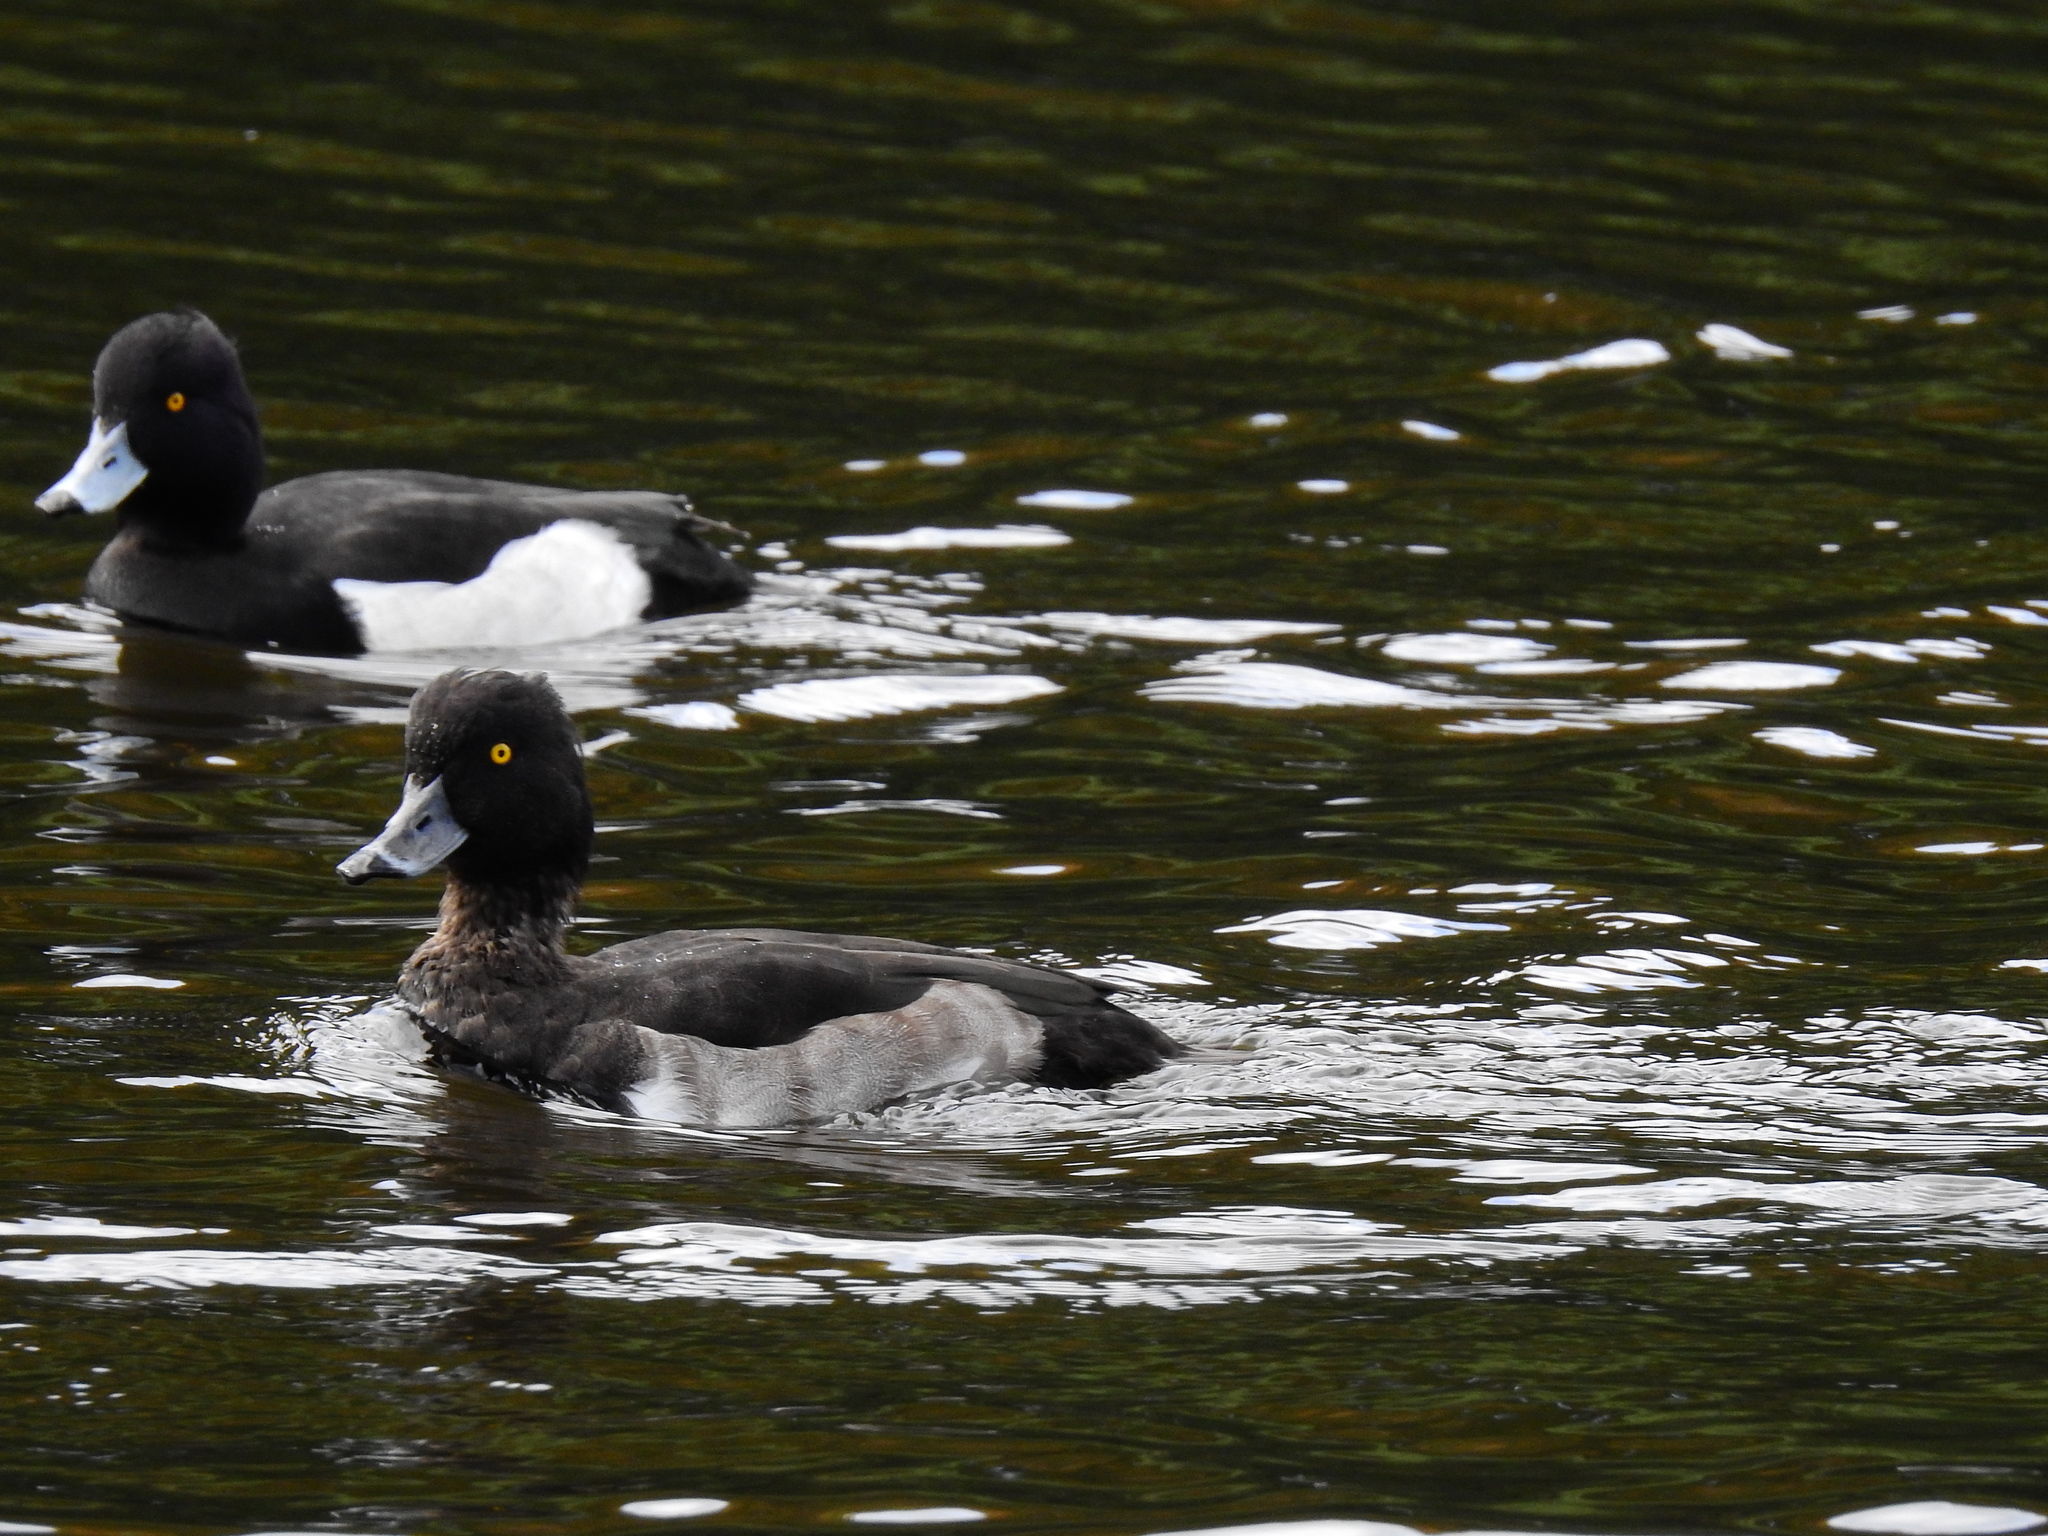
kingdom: Animalia
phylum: Chordata
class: Aves
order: Anseriformes
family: Anatidae
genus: Aythya
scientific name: Aythya fuligula
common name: Tufted duck
